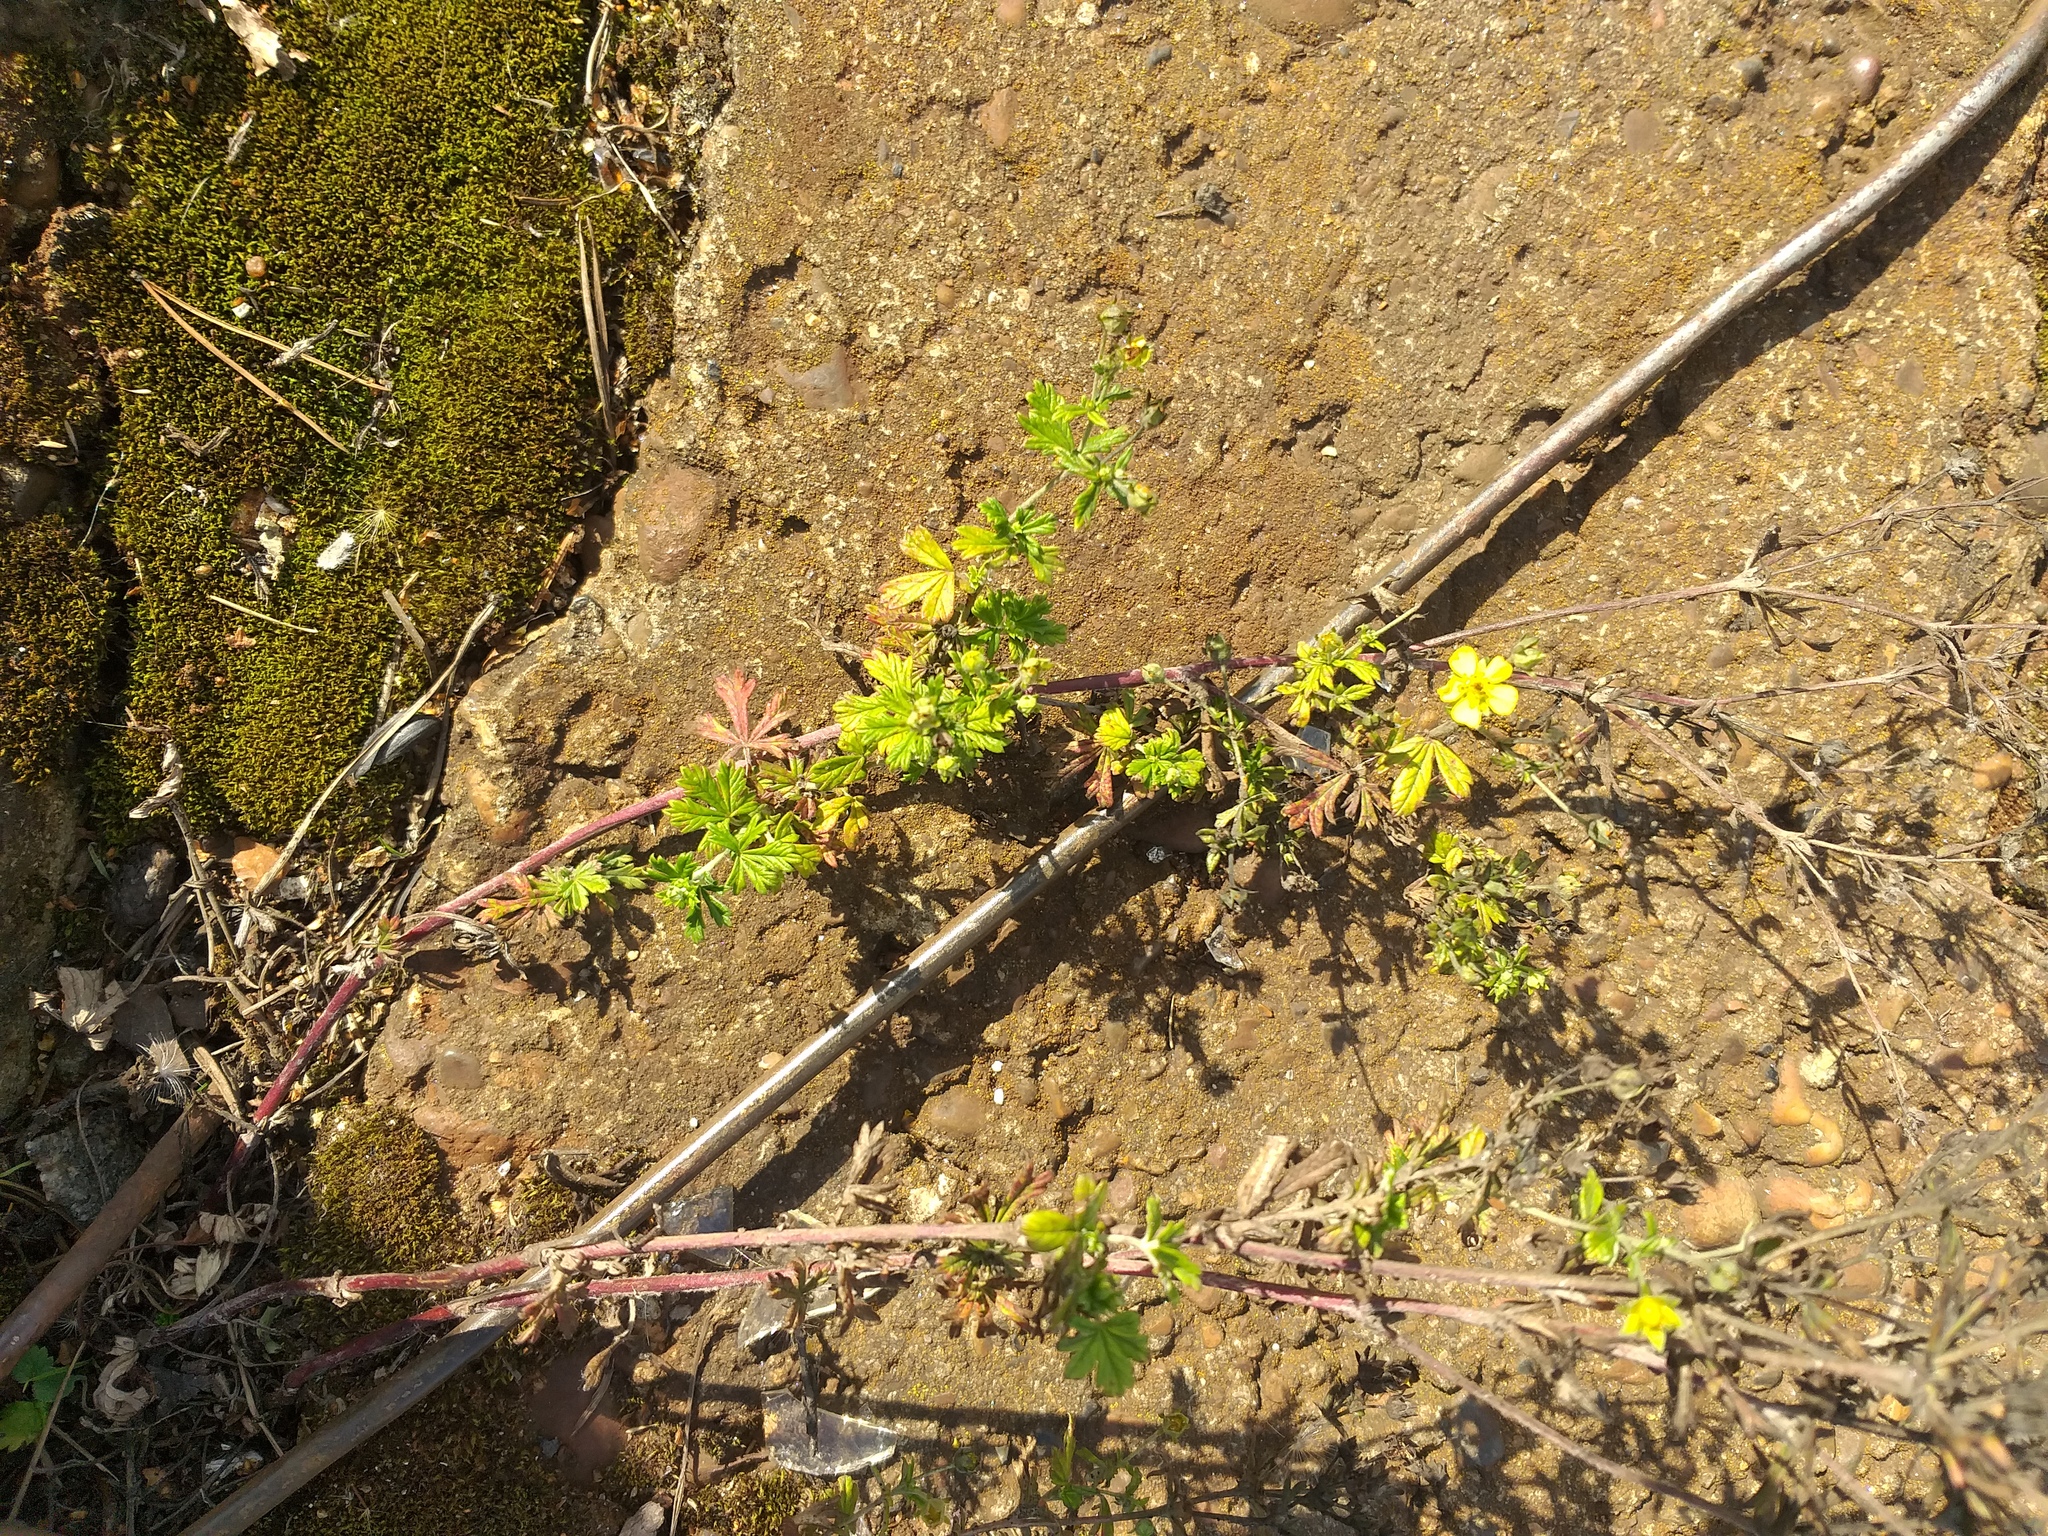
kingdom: Plantae
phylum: Tracheophyta
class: Magnoliopsida
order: Rosales
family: Rosaceae
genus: Potentilla
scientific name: Potentilla argentea
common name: Hoary cinquefoil
